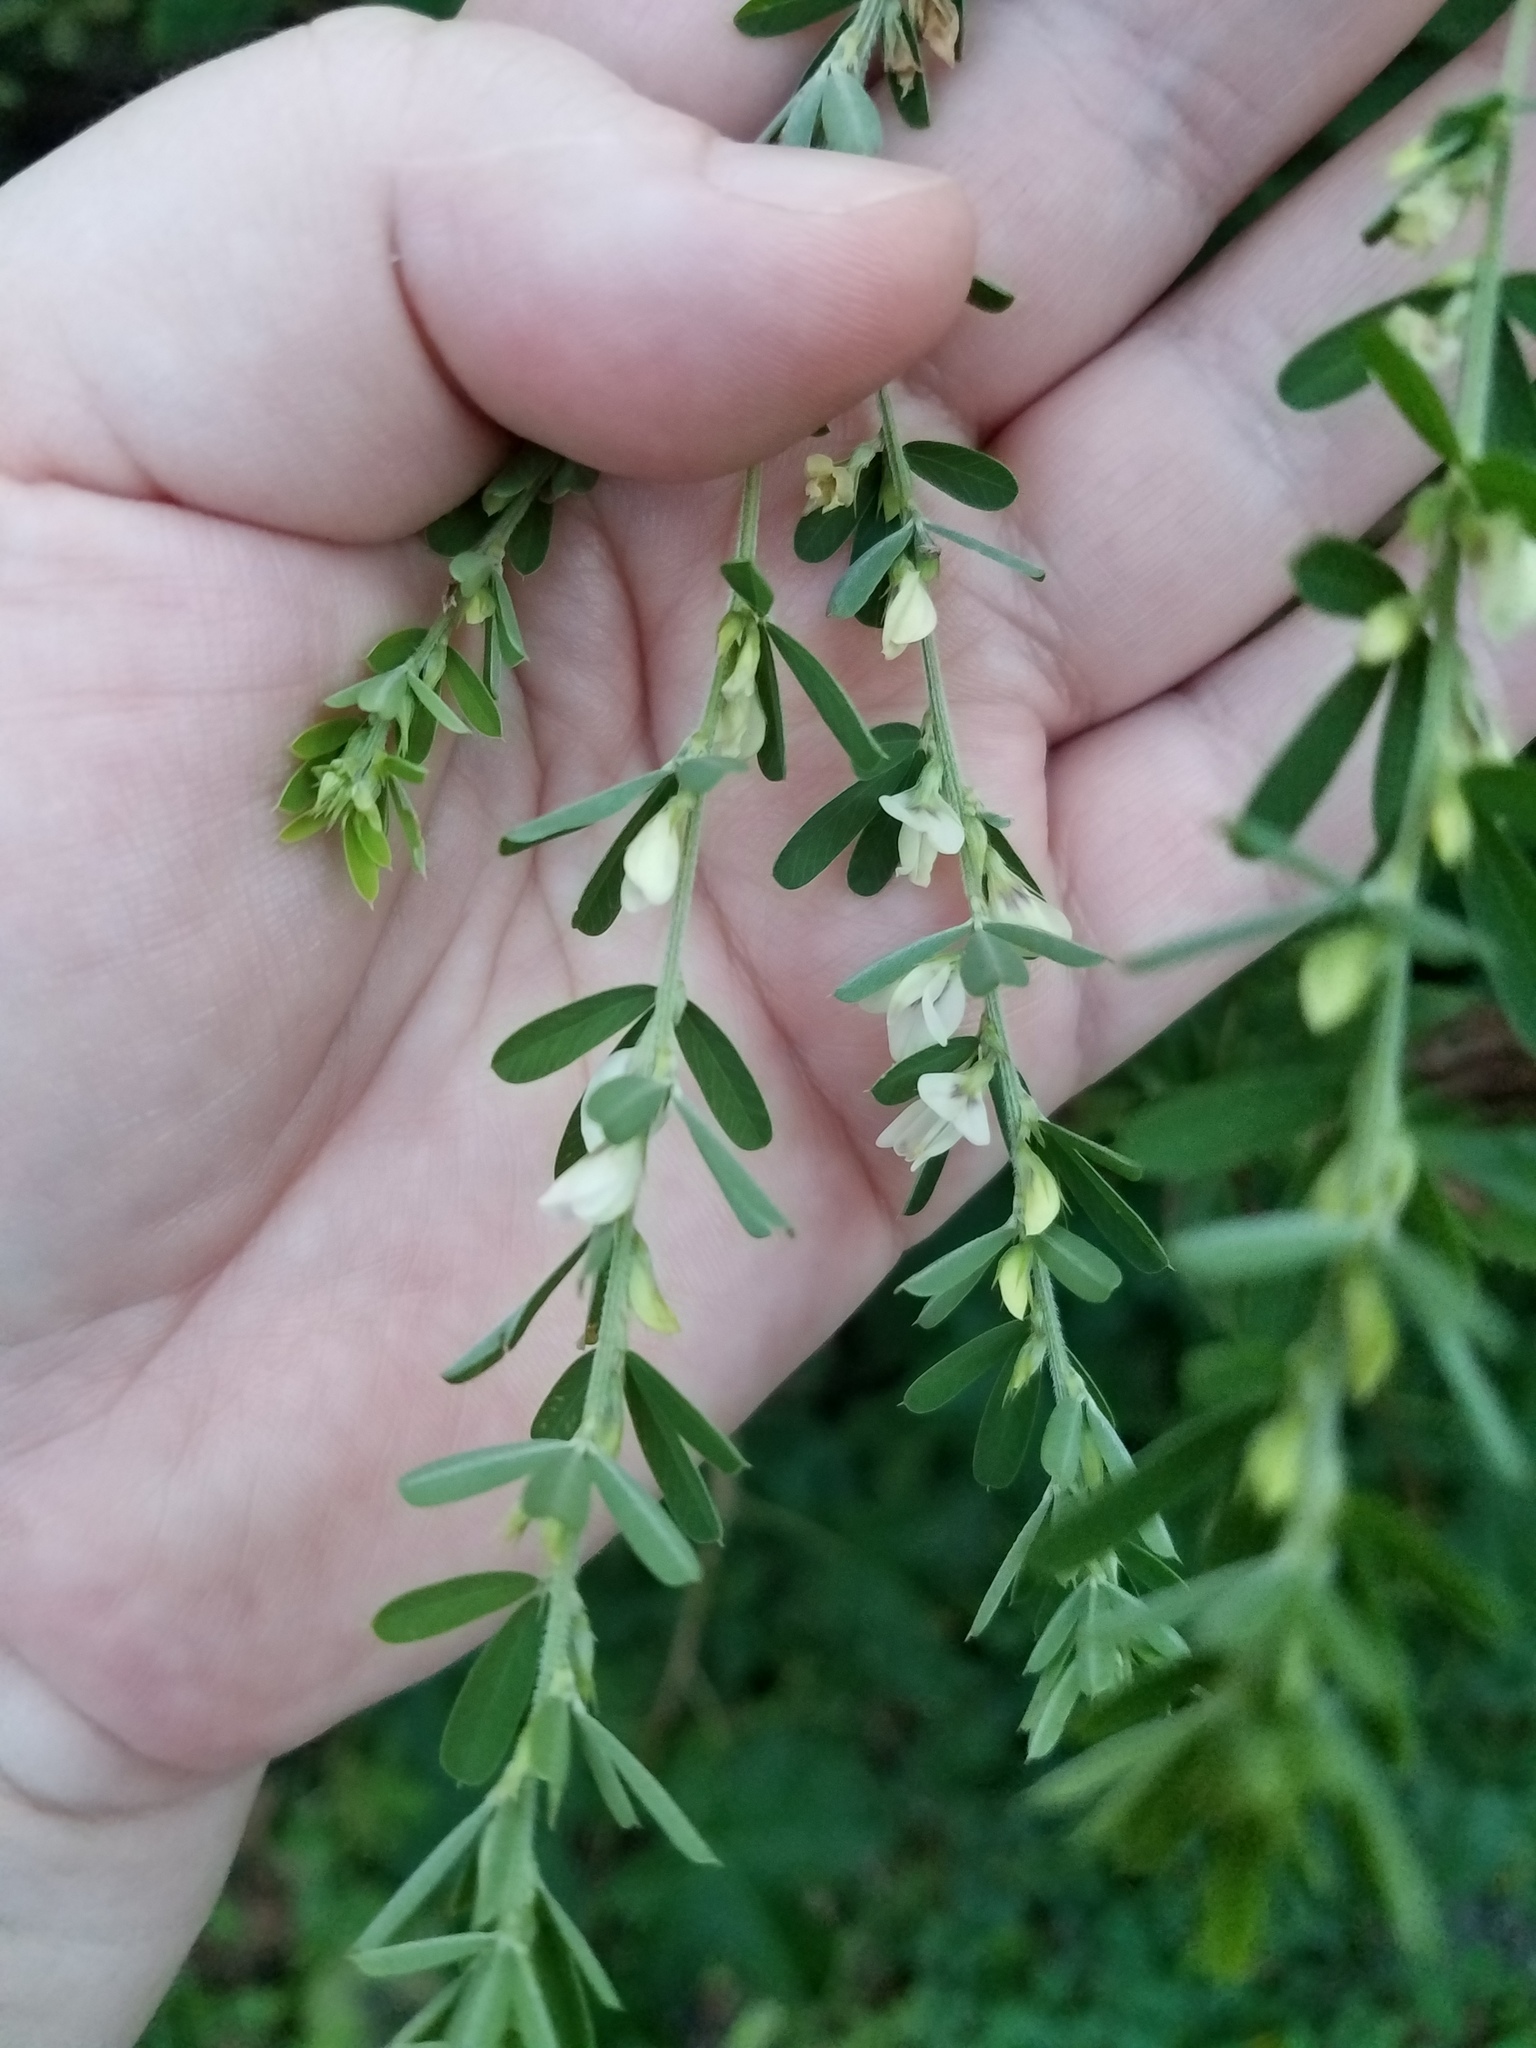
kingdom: Plantae
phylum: Tracheophyta
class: Magnoliopsida
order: Fabales
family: Fabaceae
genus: Lespedeza
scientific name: Lespedeza cuneata
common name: Chinese bush-clover
